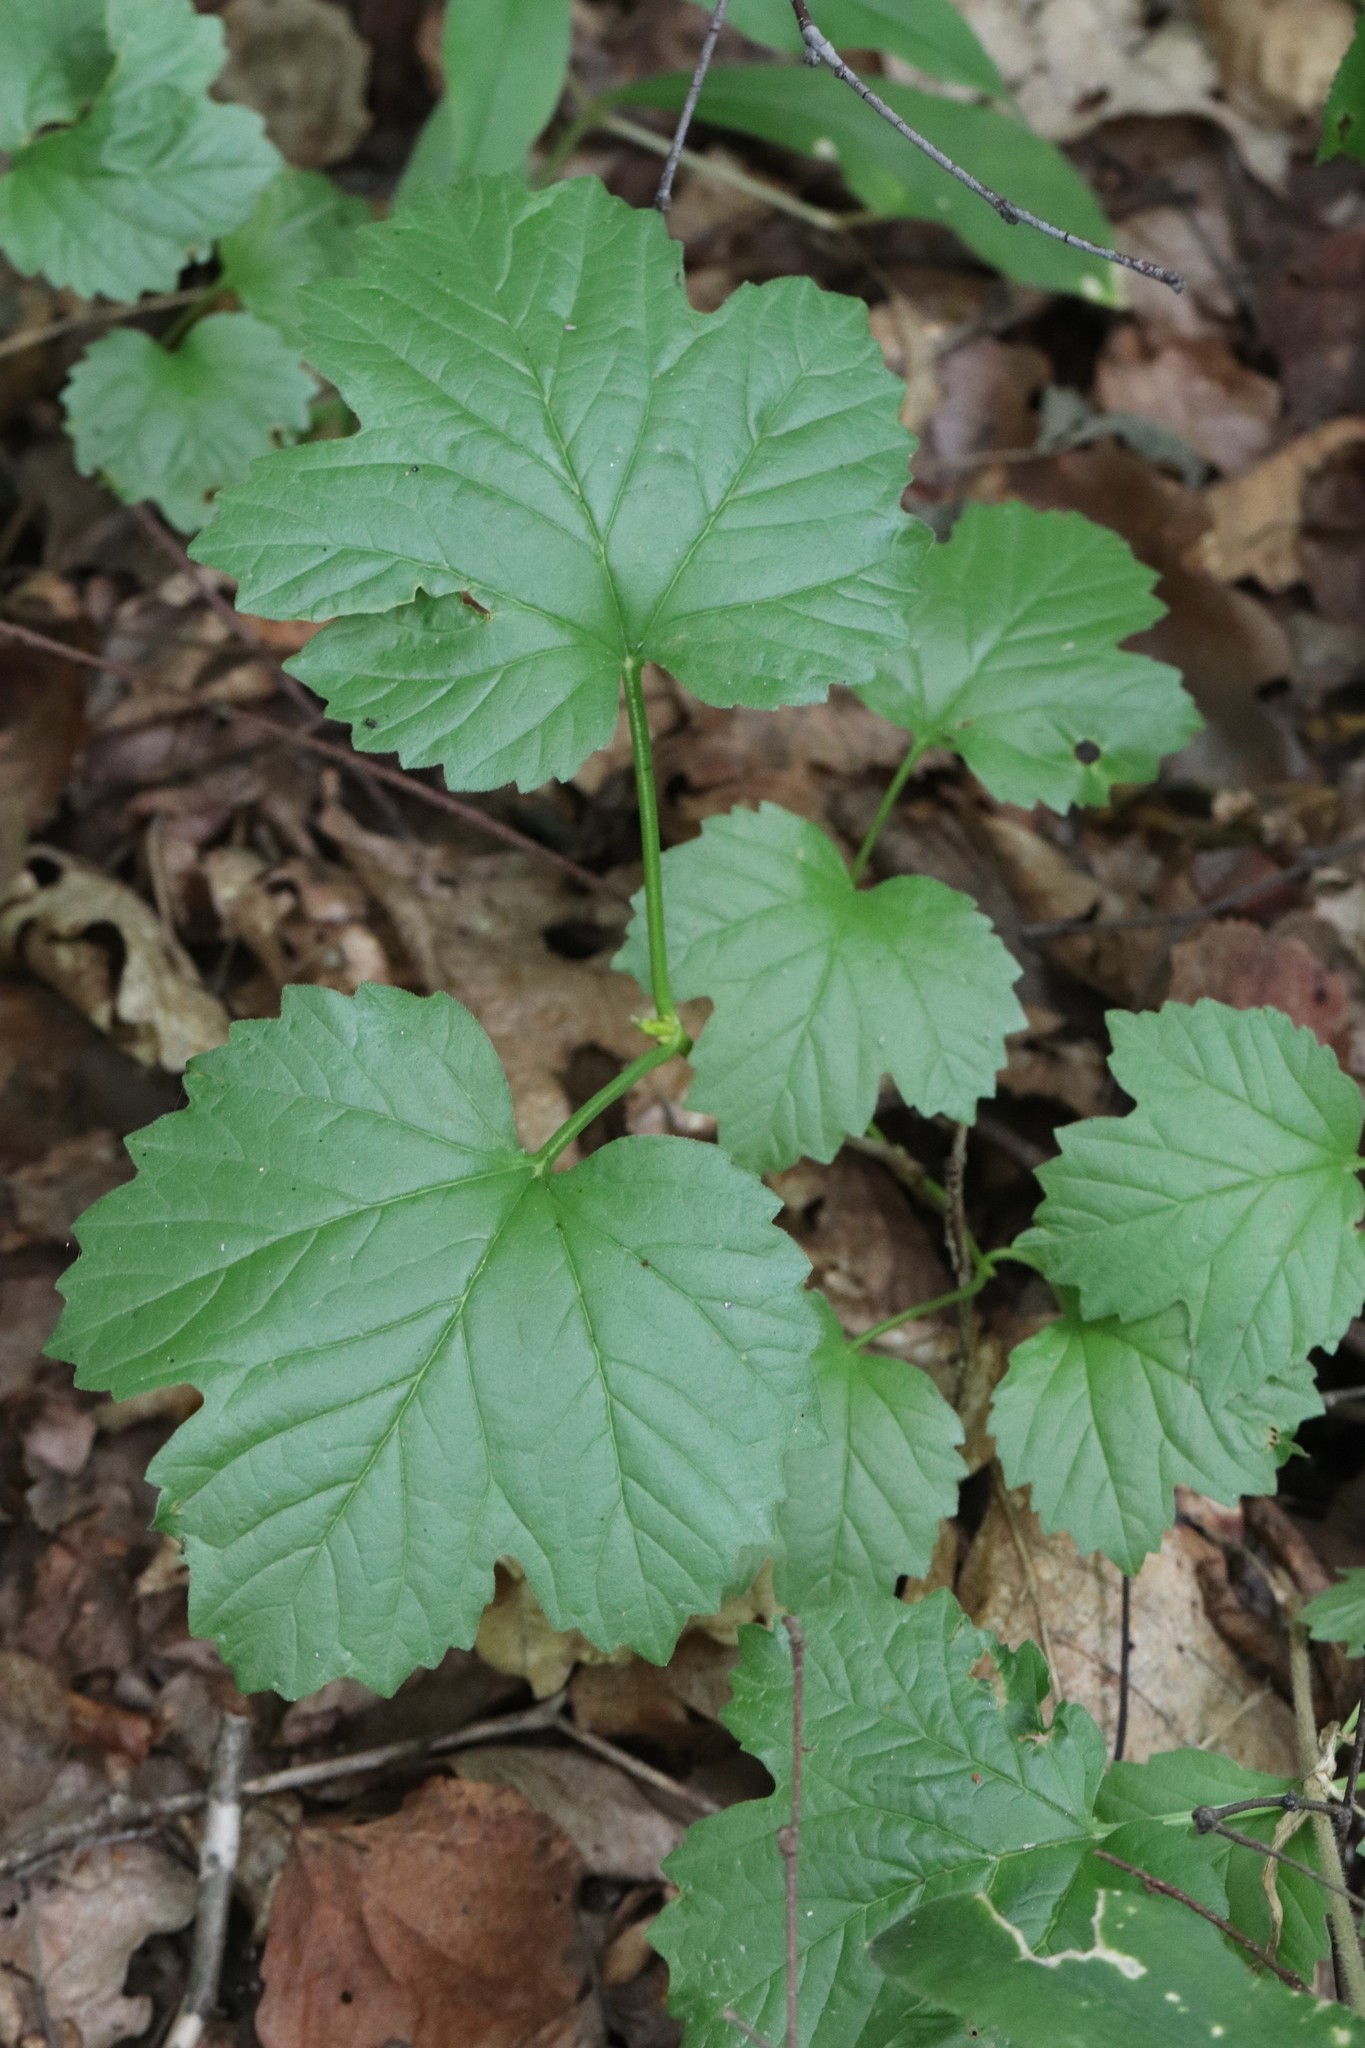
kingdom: Plantae
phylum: Tracheophyta
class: Magnoliopsida
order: Dipsacales
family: Viburnaceae
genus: Viburnum
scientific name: Viburnum sargentii
